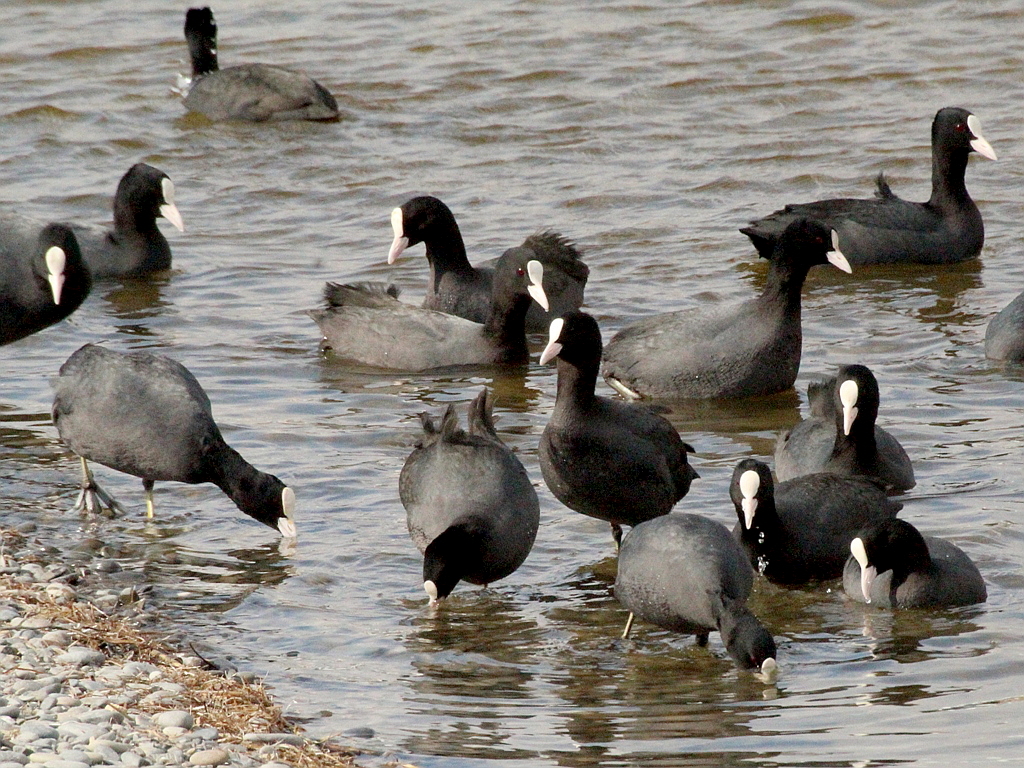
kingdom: Animalia
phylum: Chordata
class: Aves
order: Gruiformes
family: Rallidae
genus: Fulica
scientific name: Fulica atra
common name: Eurasian coot
